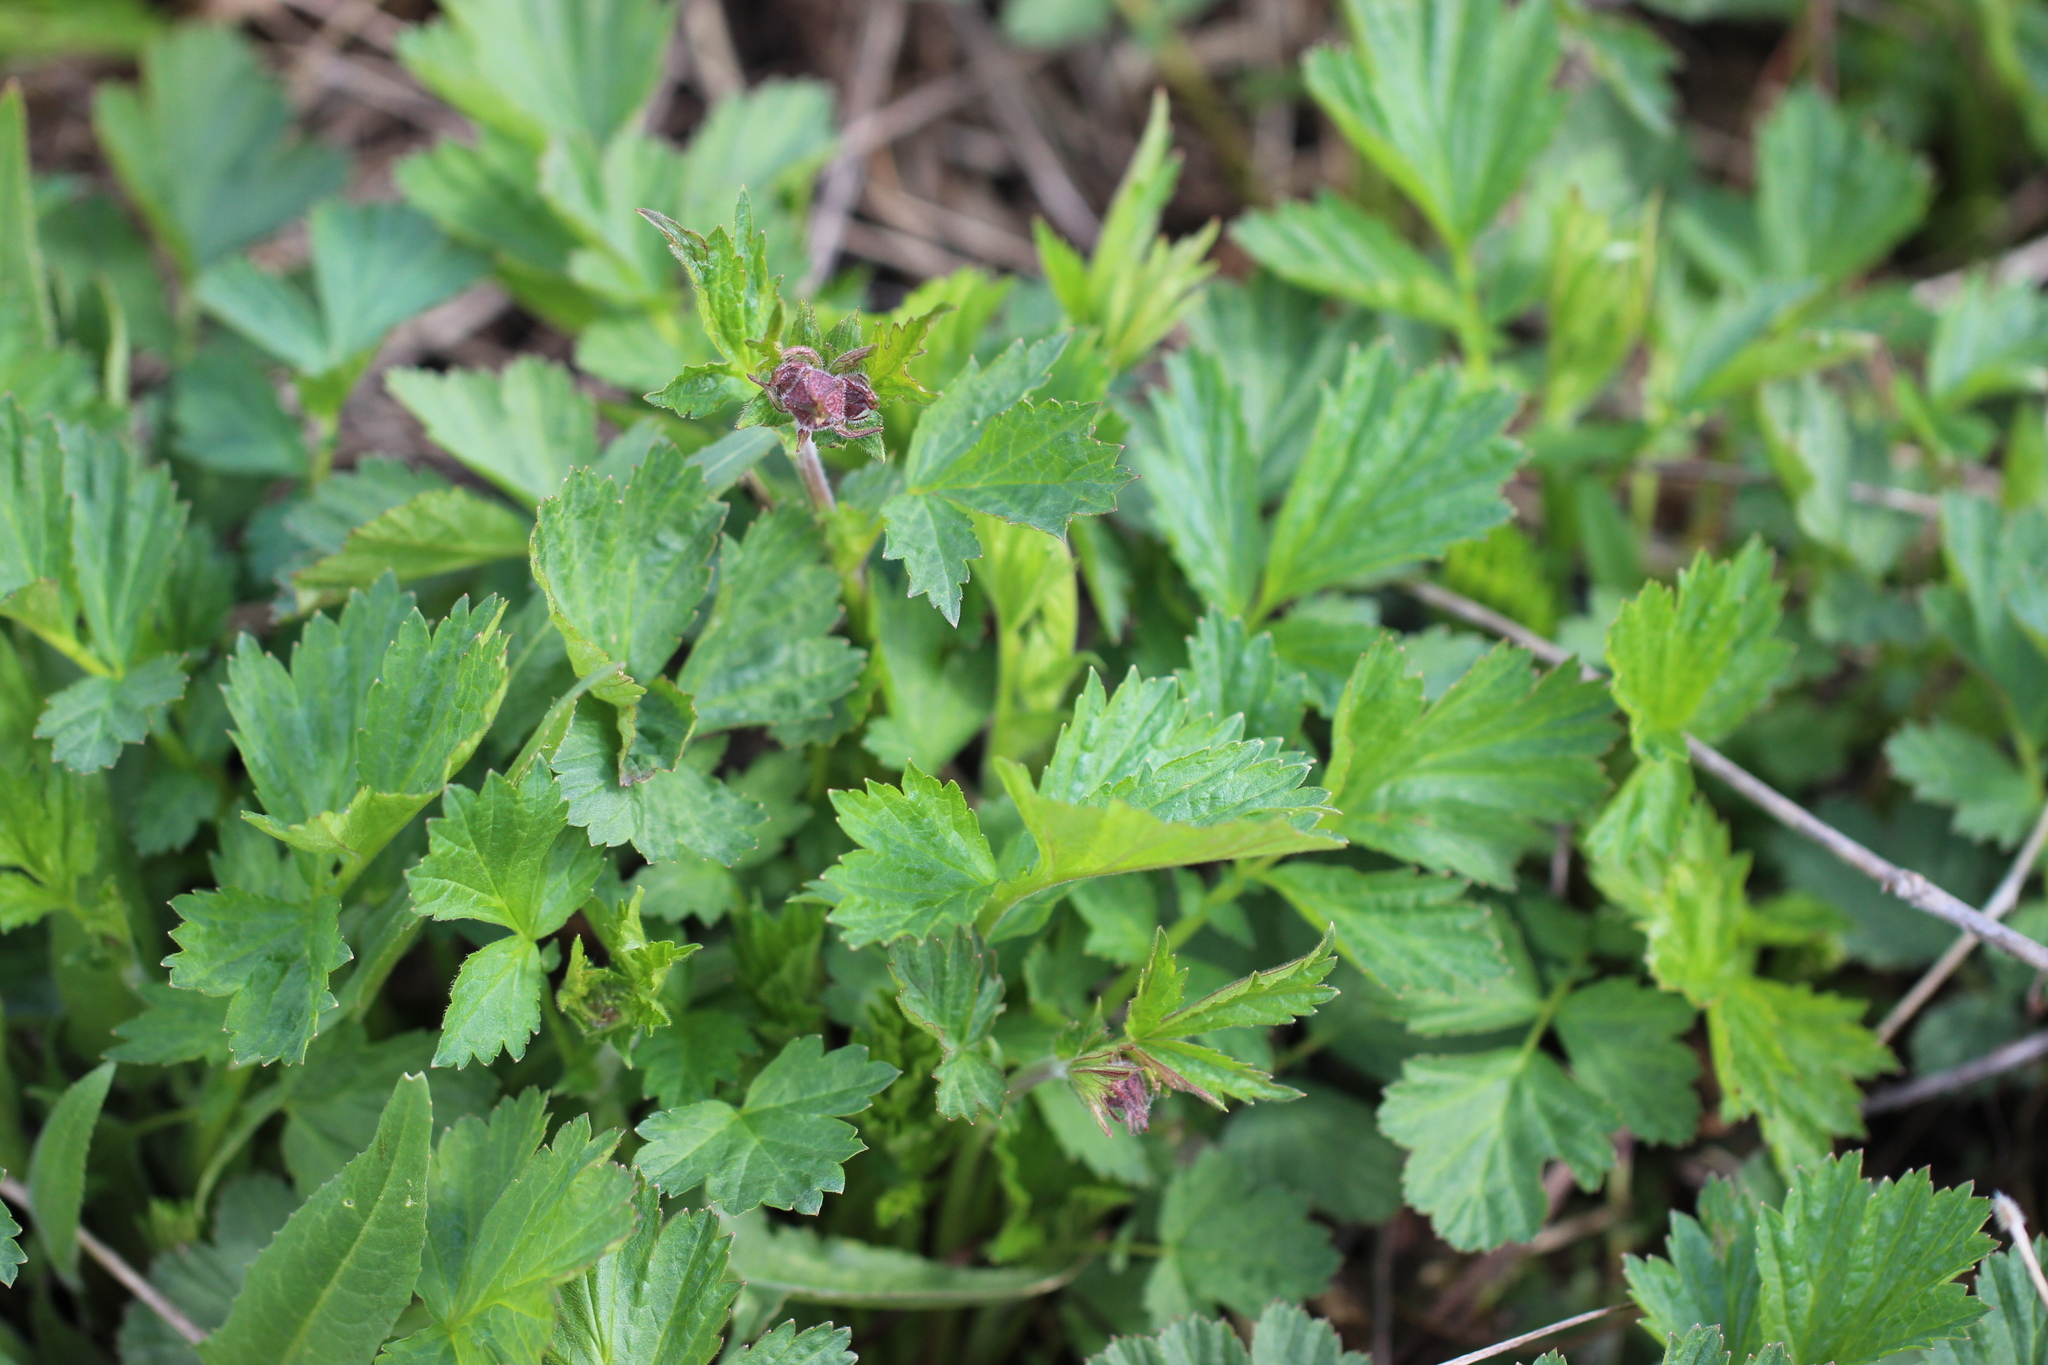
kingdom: Plantae
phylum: Tracheophyta
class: Magnoliopsida
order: Rosales
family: Rosaceae
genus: Geum
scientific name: Geum rivale
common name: Water avens
